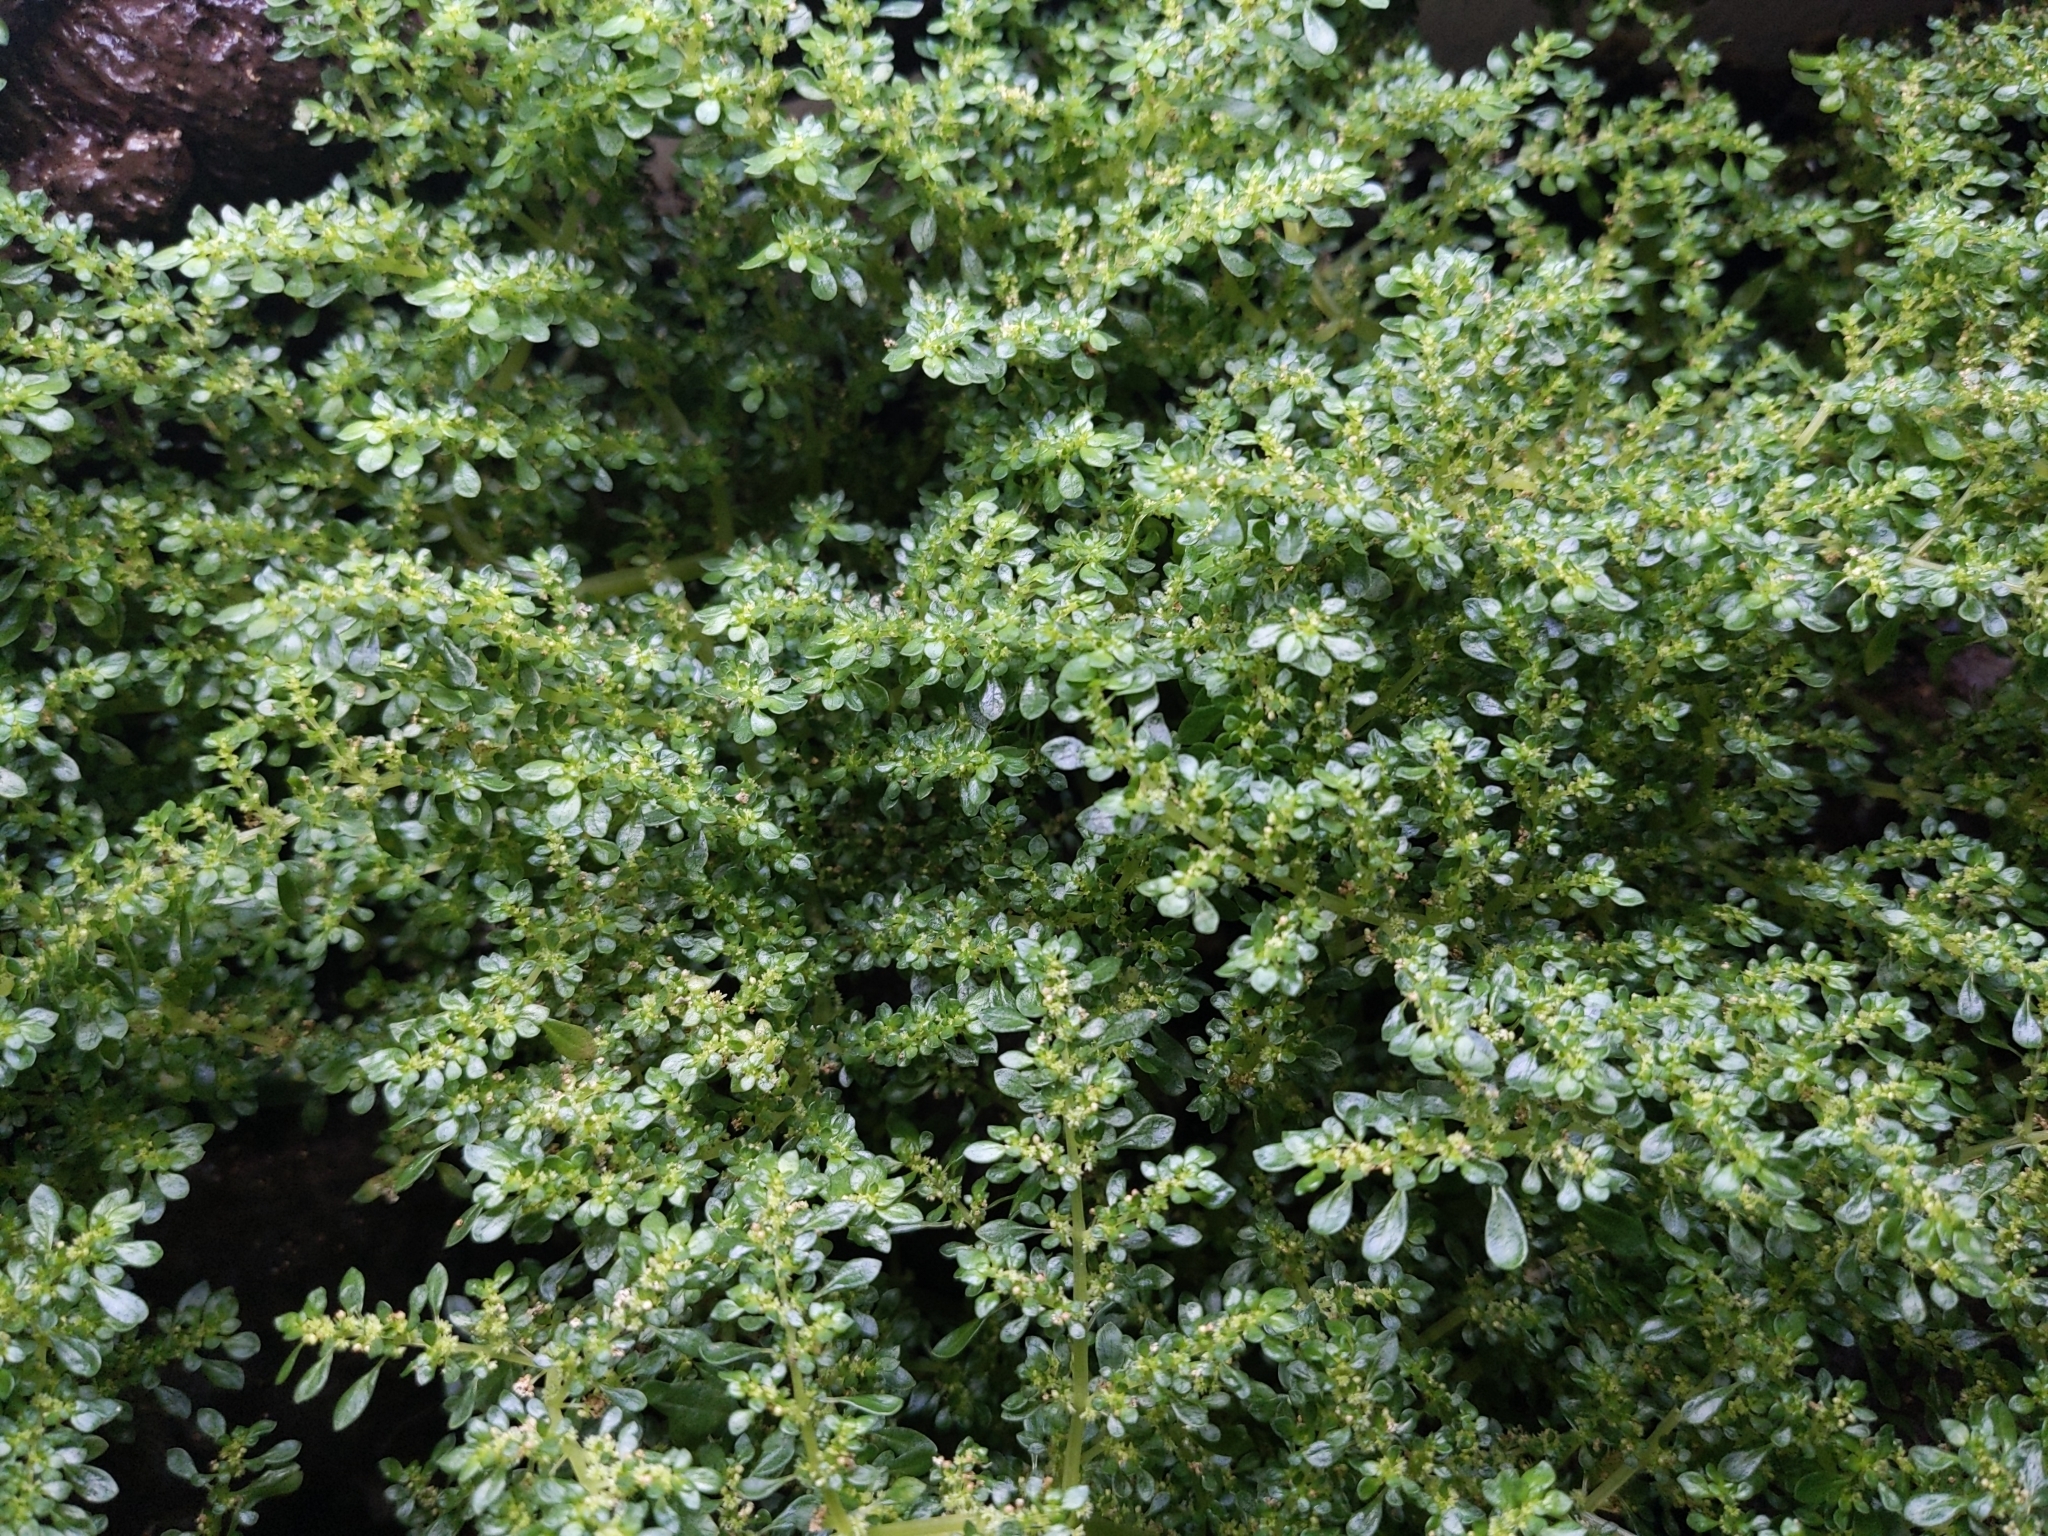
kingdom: Plantae
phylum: Tracheophyta
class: Magnoliopsida
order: Rosales
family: Urticaceae
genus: Pilea
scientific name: Pilea microphylla
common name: Artillery-plant
